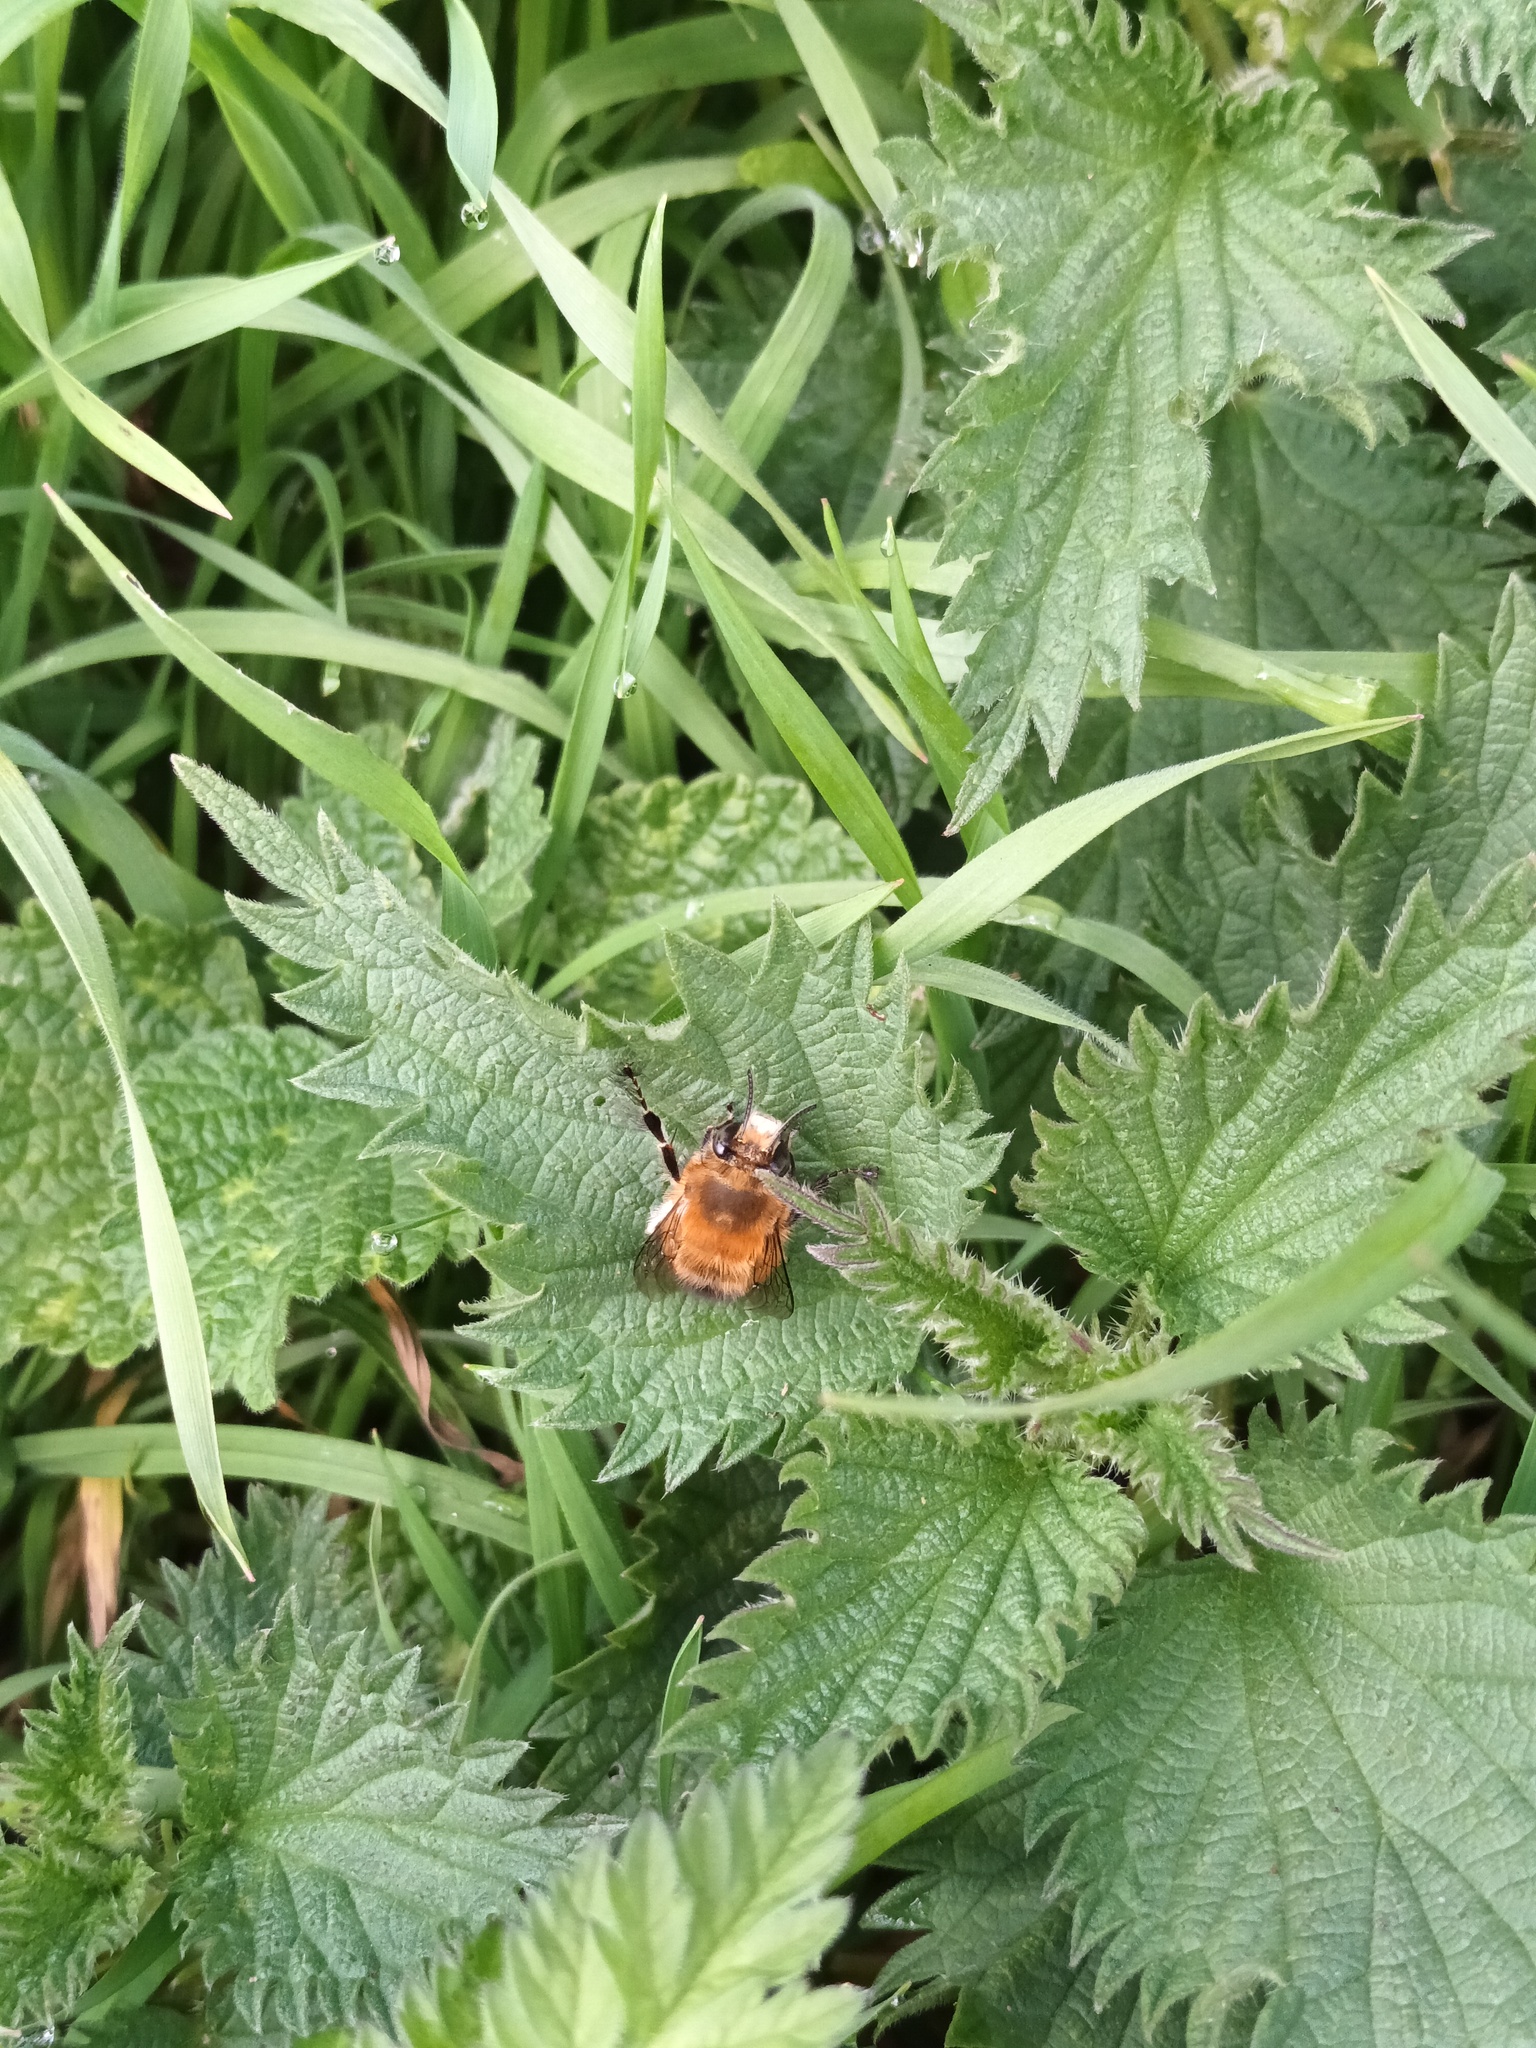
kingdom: Animalia
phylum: Arthropoda
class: Insecta
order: Hymenoptera
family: Apidae
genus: Anthophora
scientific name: Anthophora plumipes
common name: Hairy-footed flower bee
